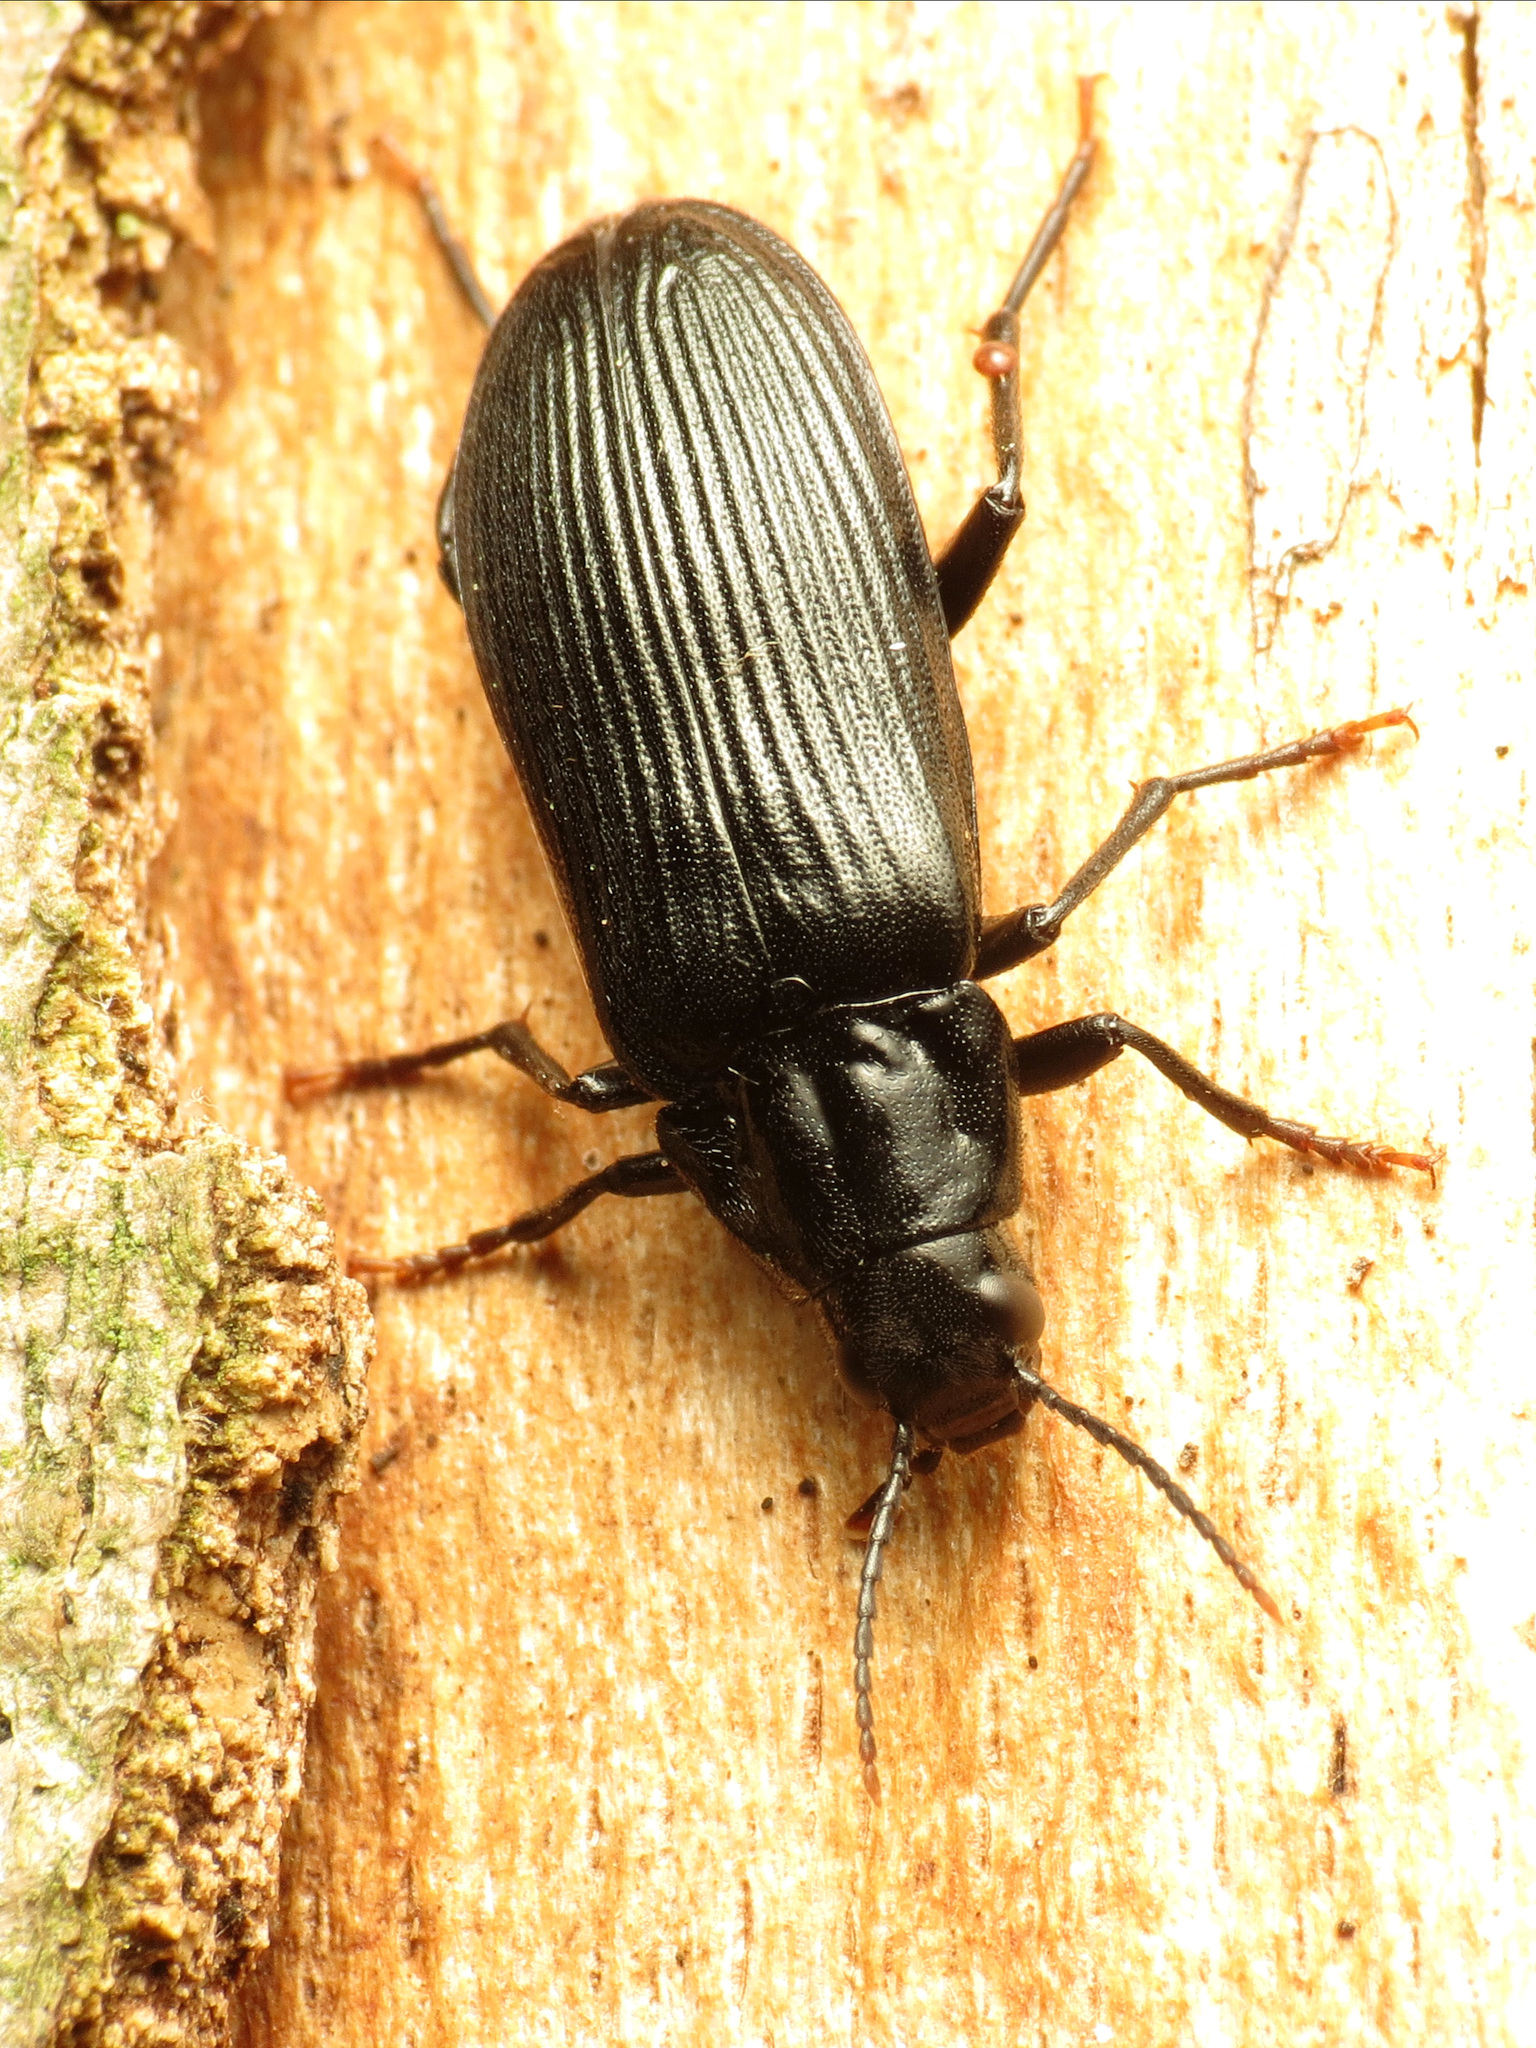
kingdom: Animalia
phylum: Arthropoda
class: Insecta
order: Coleoptera
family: Melandryidae
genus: Melandrya
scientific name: Melandrya striata
